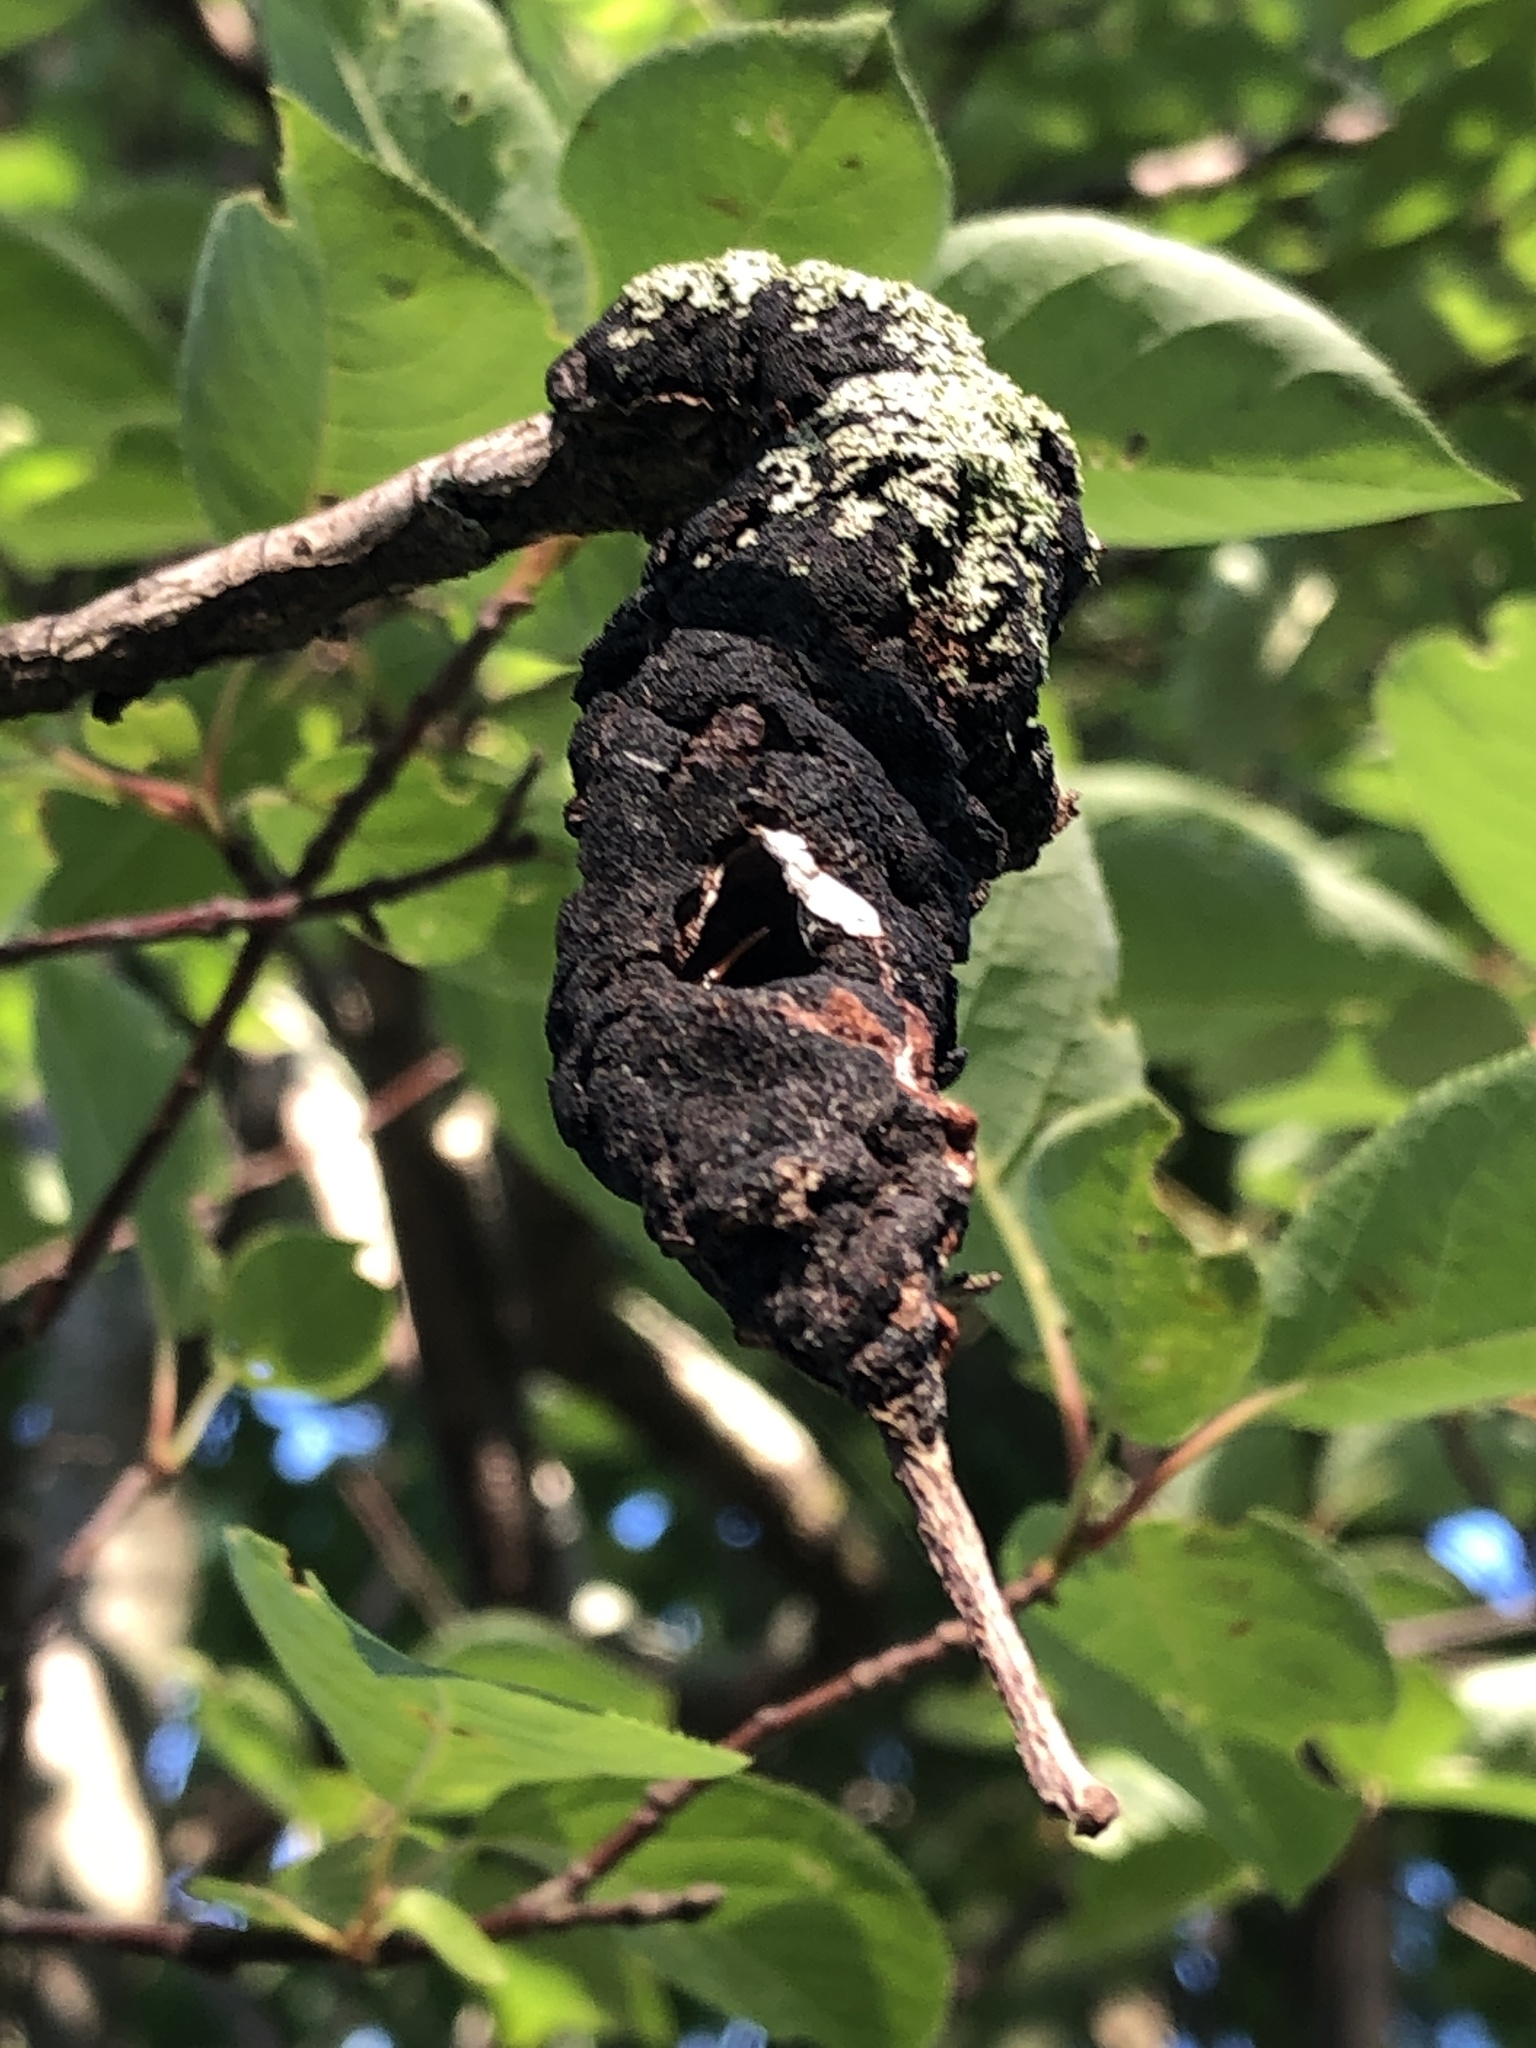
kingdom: Fungi
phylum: Ascomycota
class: Dothideomycetes
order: Venturiales
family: Venturiaceae
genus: Apiosporina
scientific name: Apiosporina morbosa
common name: Black knot
